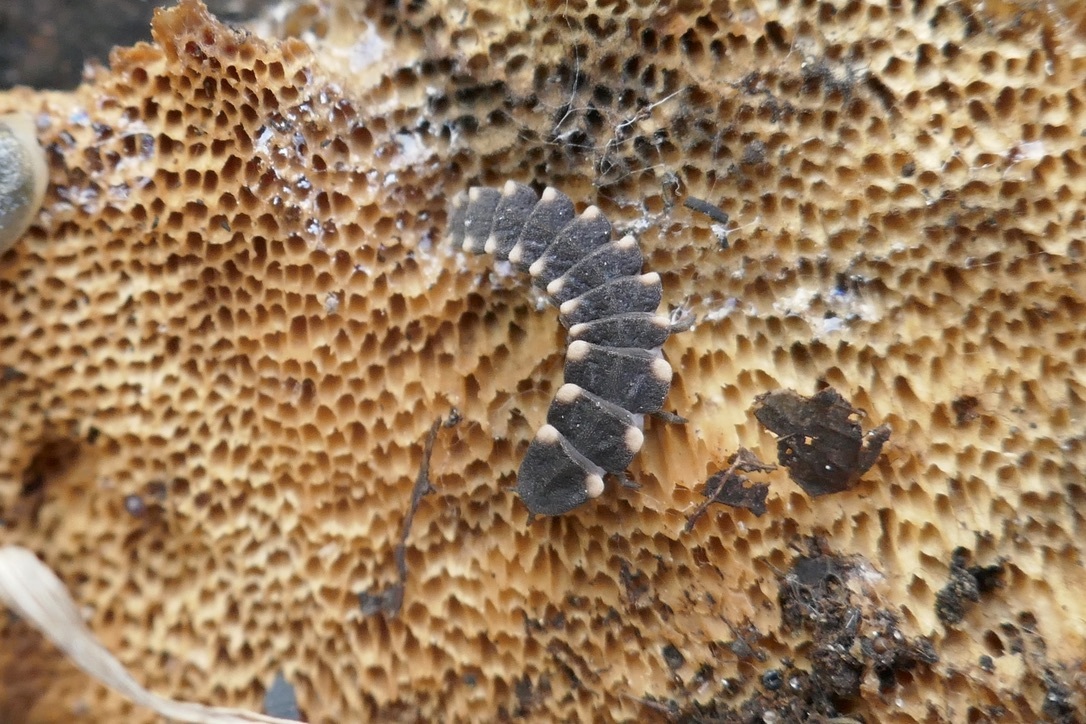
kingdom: Animalia
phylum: Arthropoda
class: Insecta
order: Coleoptera
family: Lampyridae
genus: Lampyris
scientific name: Lampyris noctiluca
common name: Glow-worm
